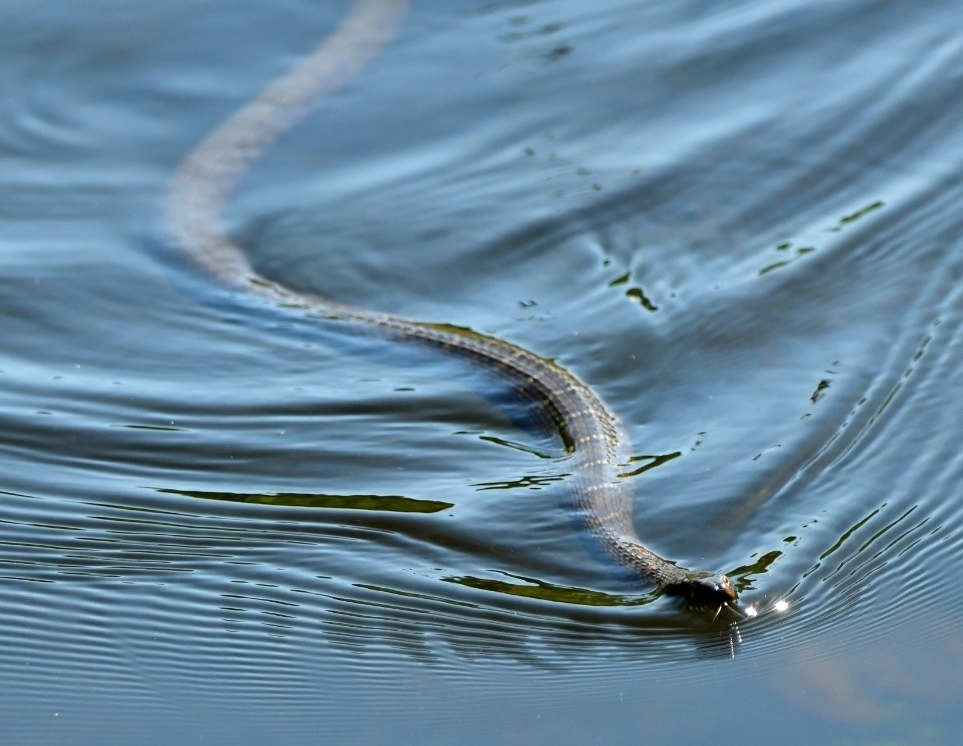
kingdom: Animalia
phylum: Chordata
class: Squamata
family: Colubridae
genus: Nerodia
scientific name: Nerodia sipedon
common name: Northern water snake
